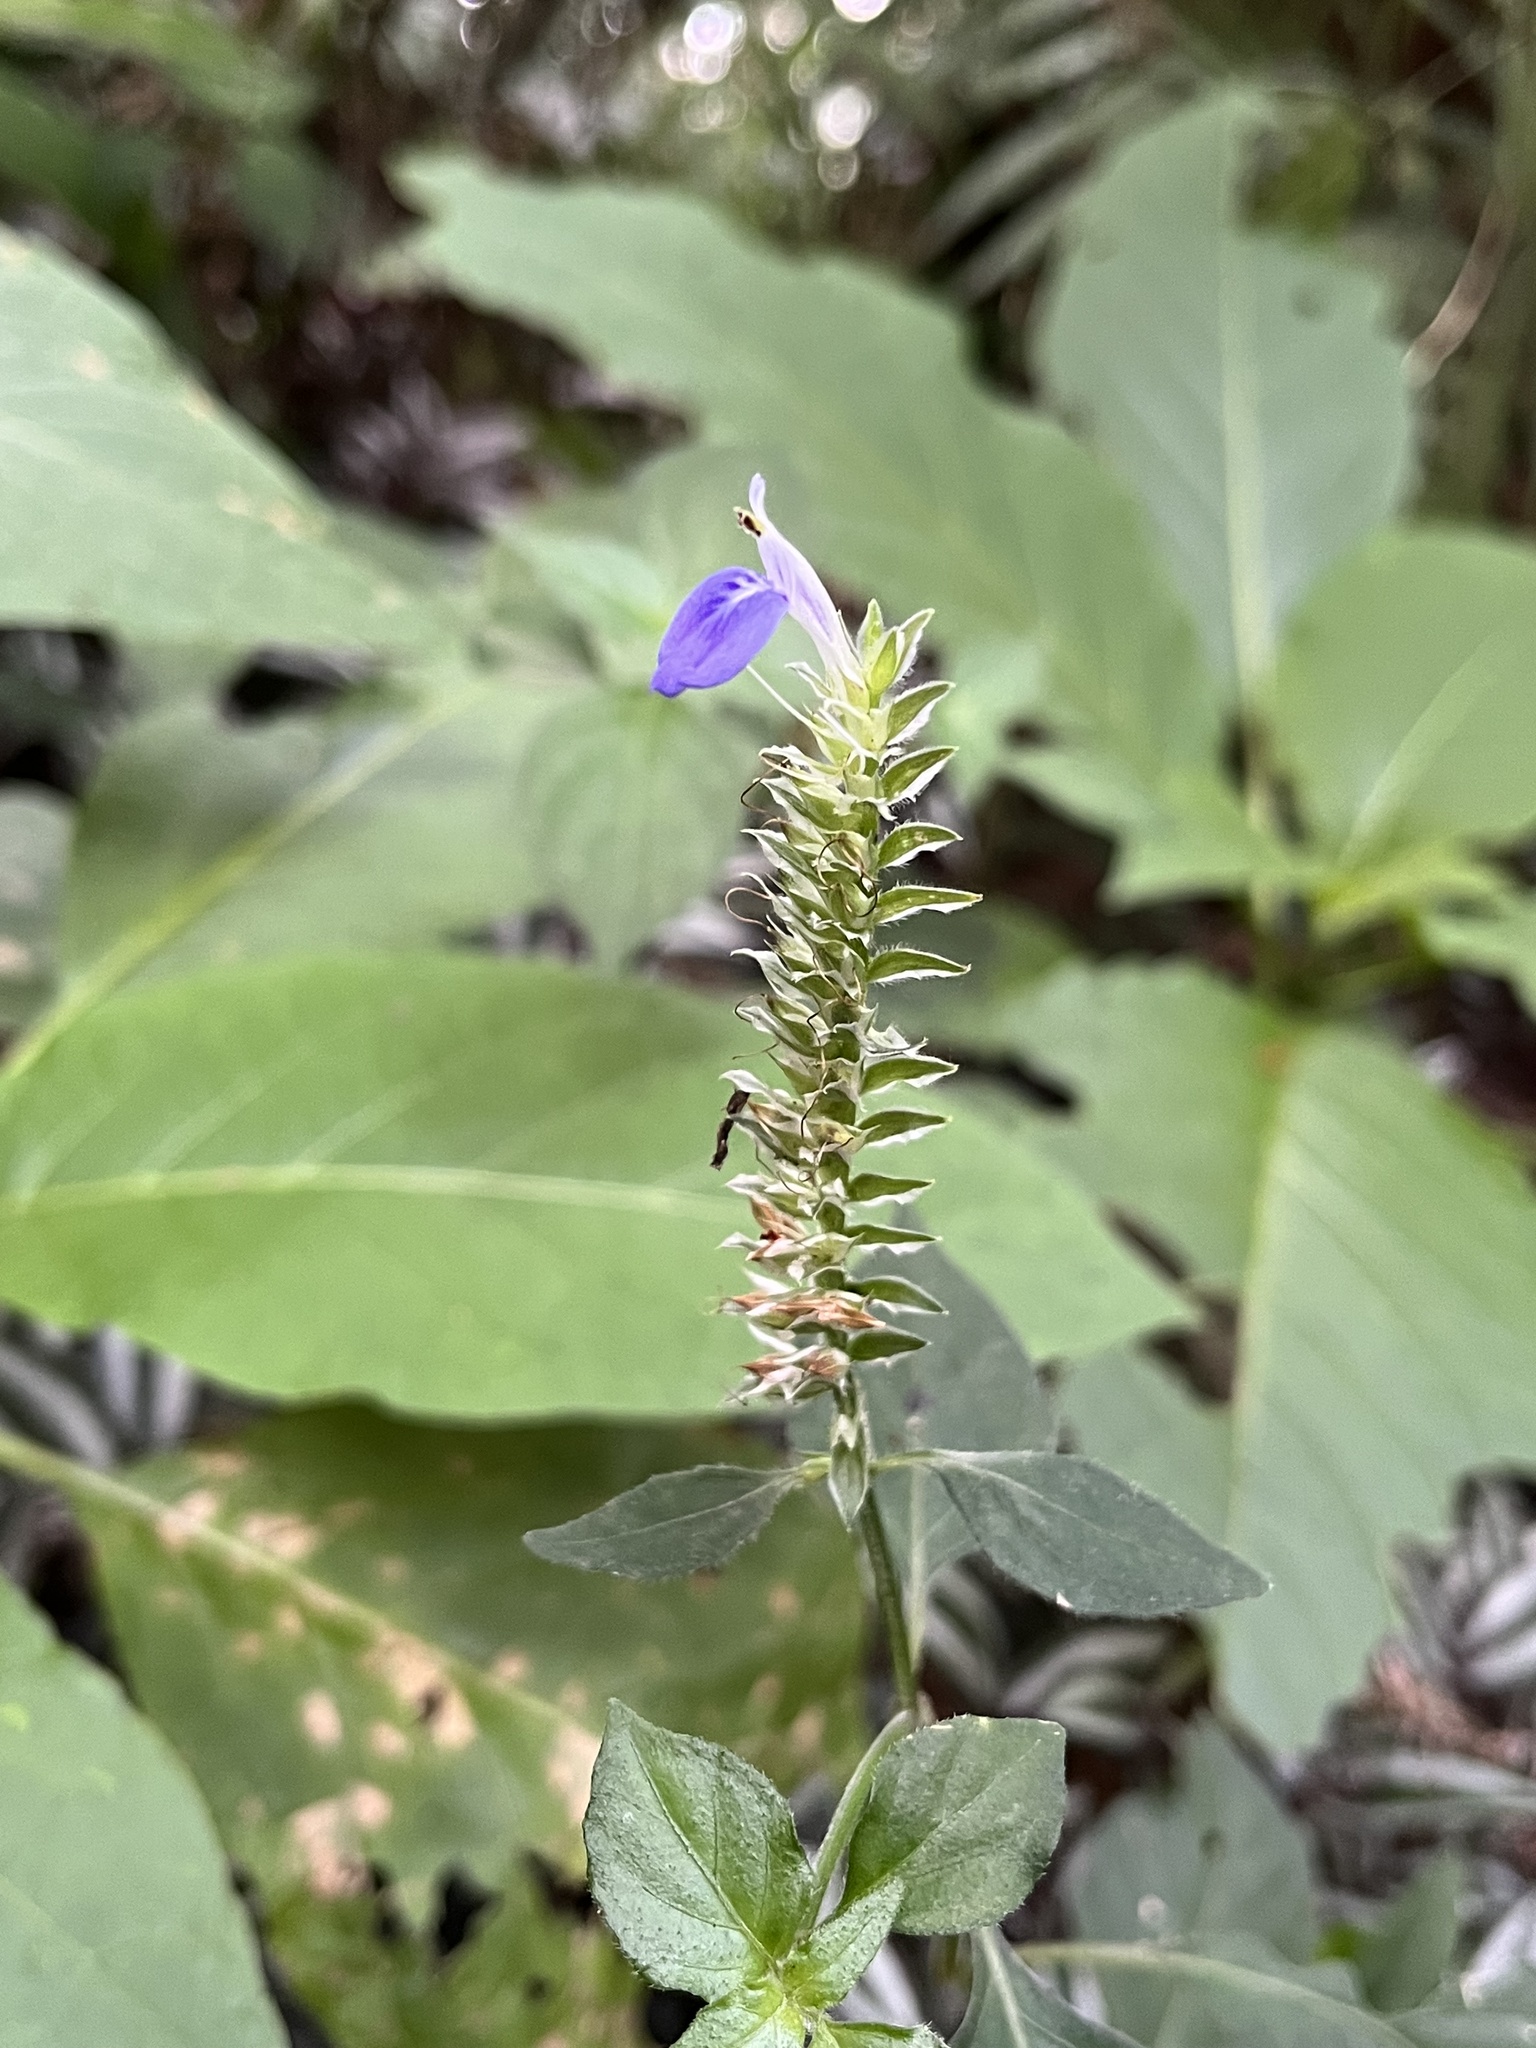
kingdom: Plantae
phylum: Tracheophyta
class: Magnoliopsida
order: Lamiales
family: Acanthaceae
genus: Rungia
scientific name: Rungia taiwanensis
